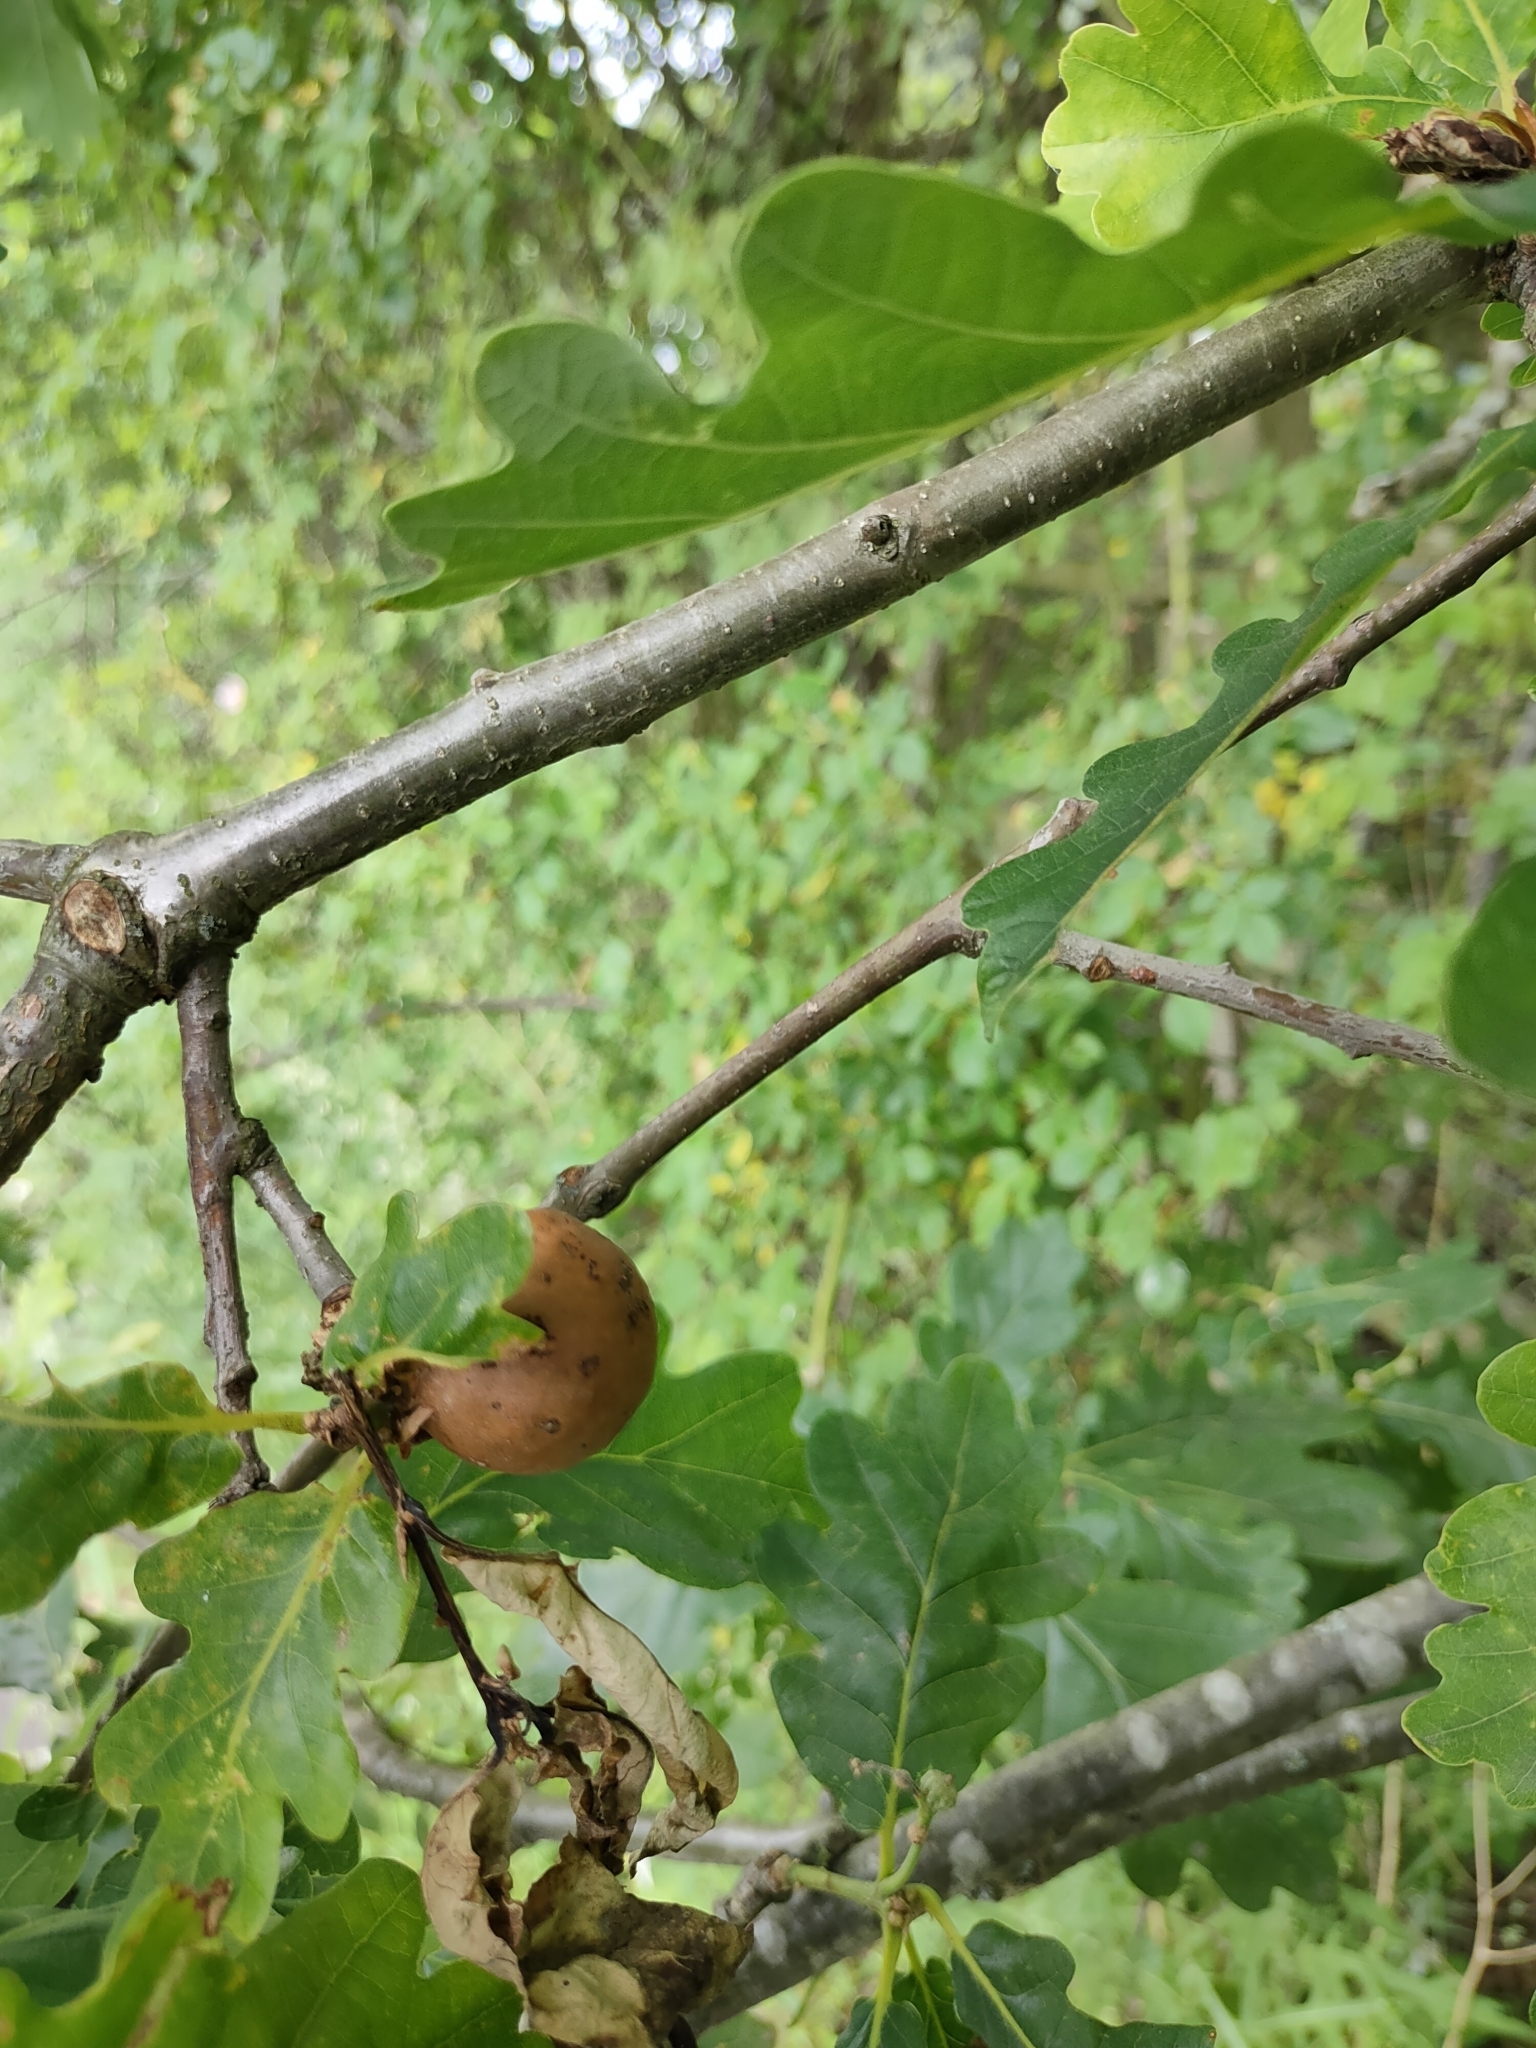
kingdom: Animalia
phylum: Arthropoda
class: Insecta
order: Hymenoptera
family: Cynipidae
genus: Andricus
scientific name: Andricus kollari
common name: Marble gall
